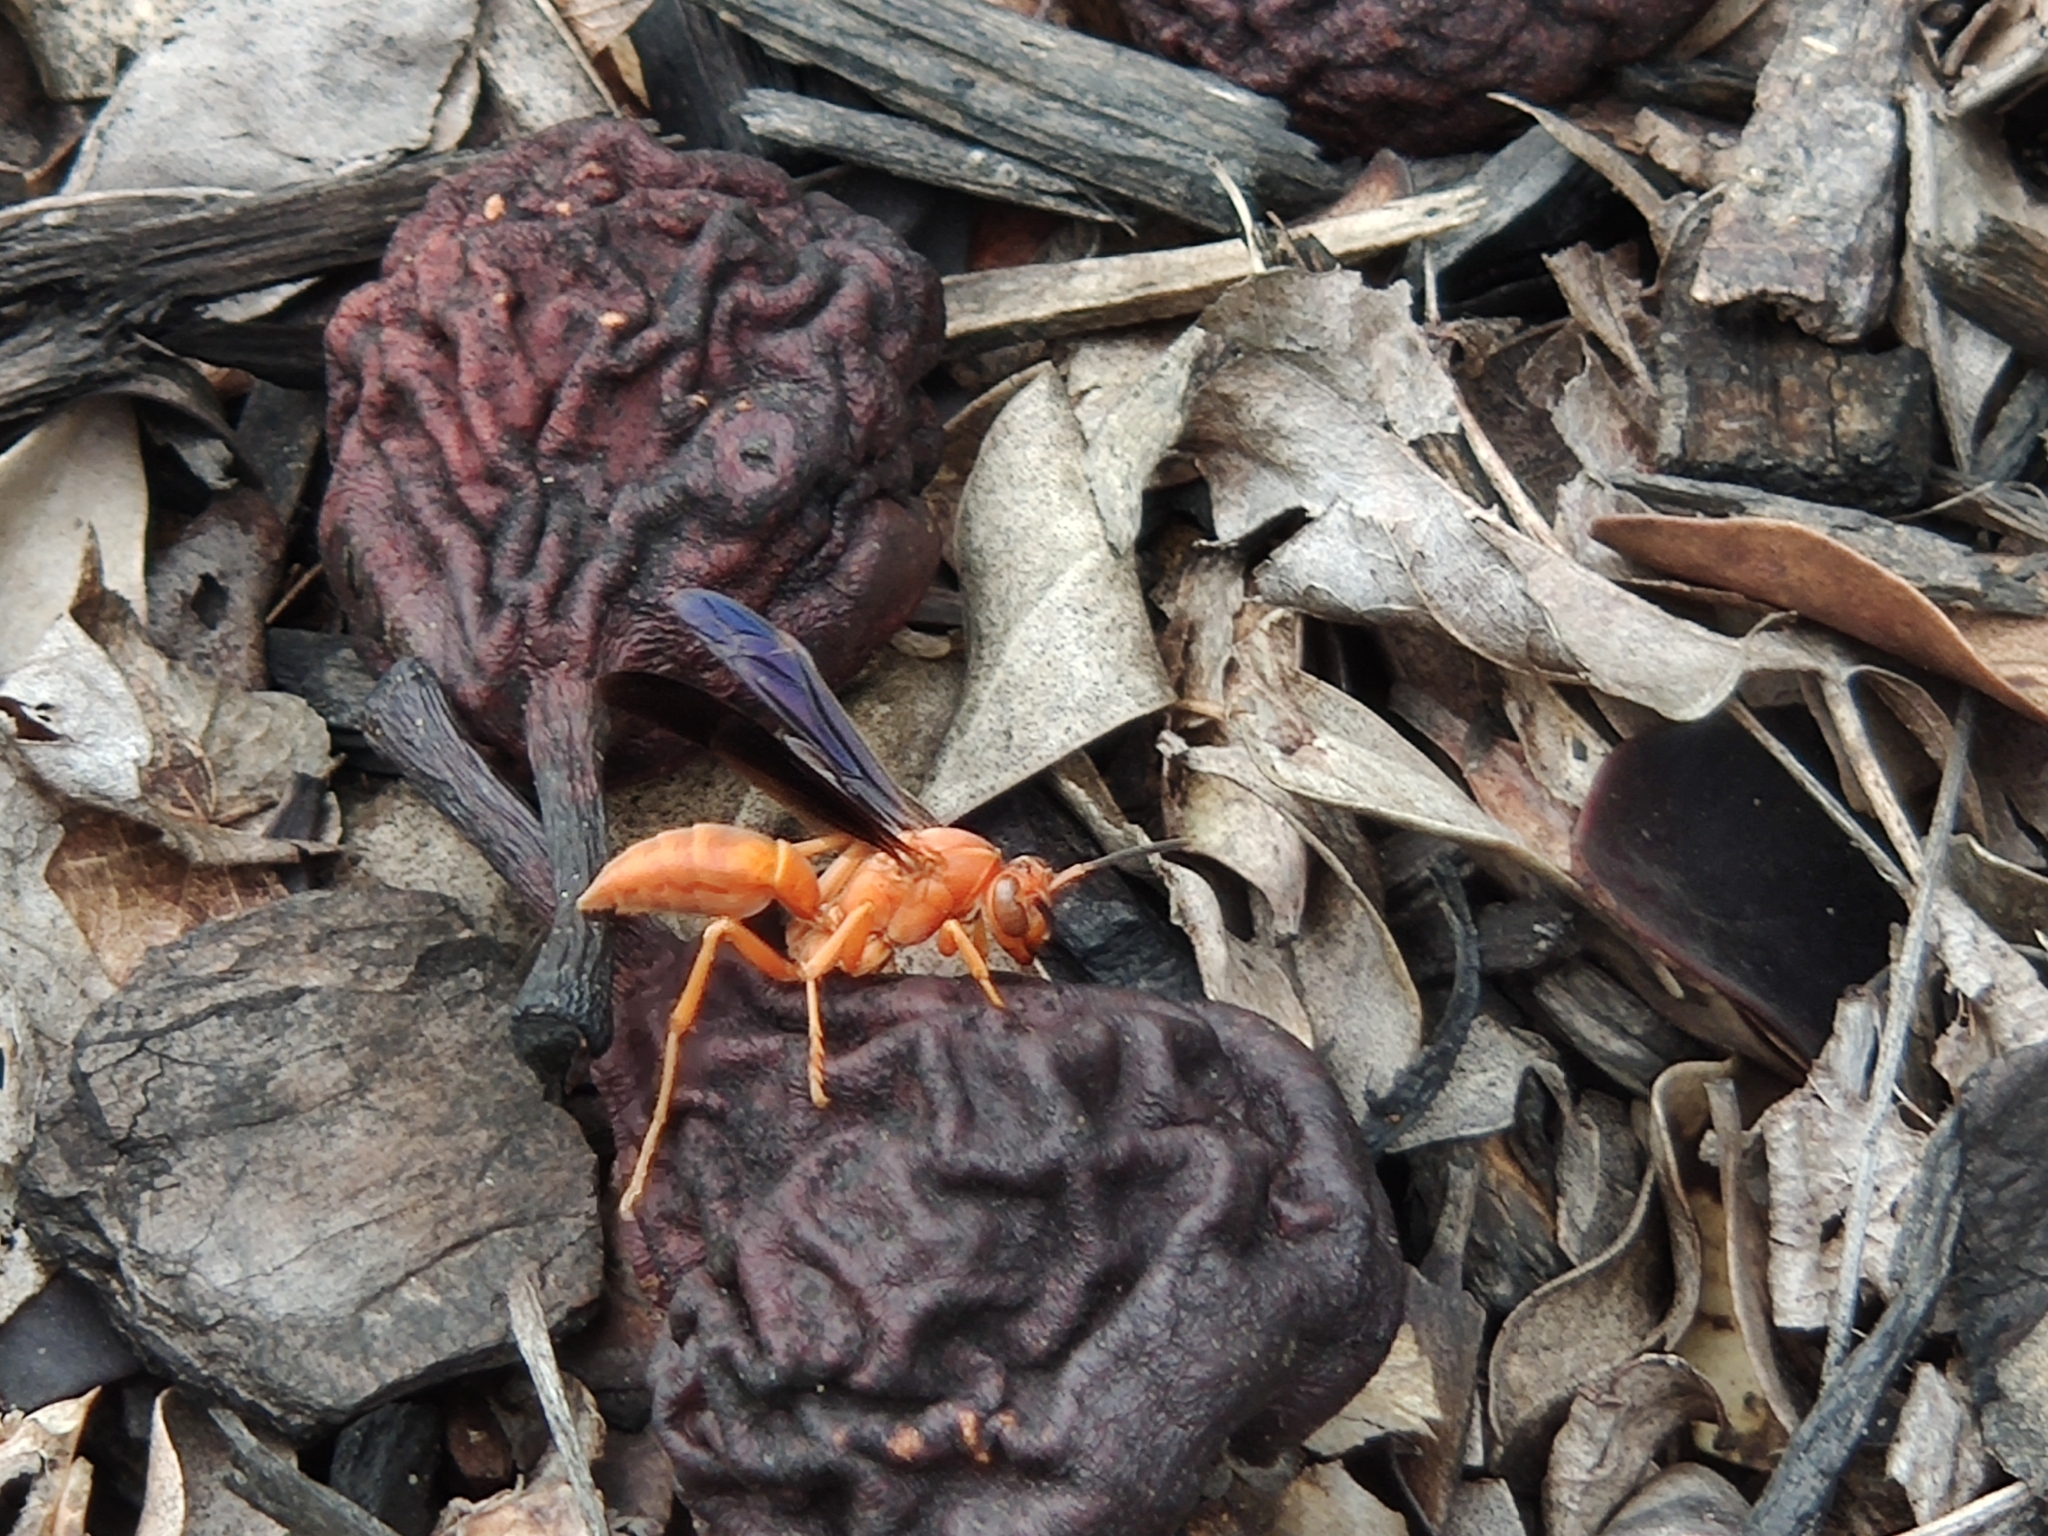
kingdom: Animalia
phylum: Arthropoda
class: Insecta
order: Hymenoptera
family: Vespidae
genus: Fuscopolistes
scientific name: Fuscopolistes
